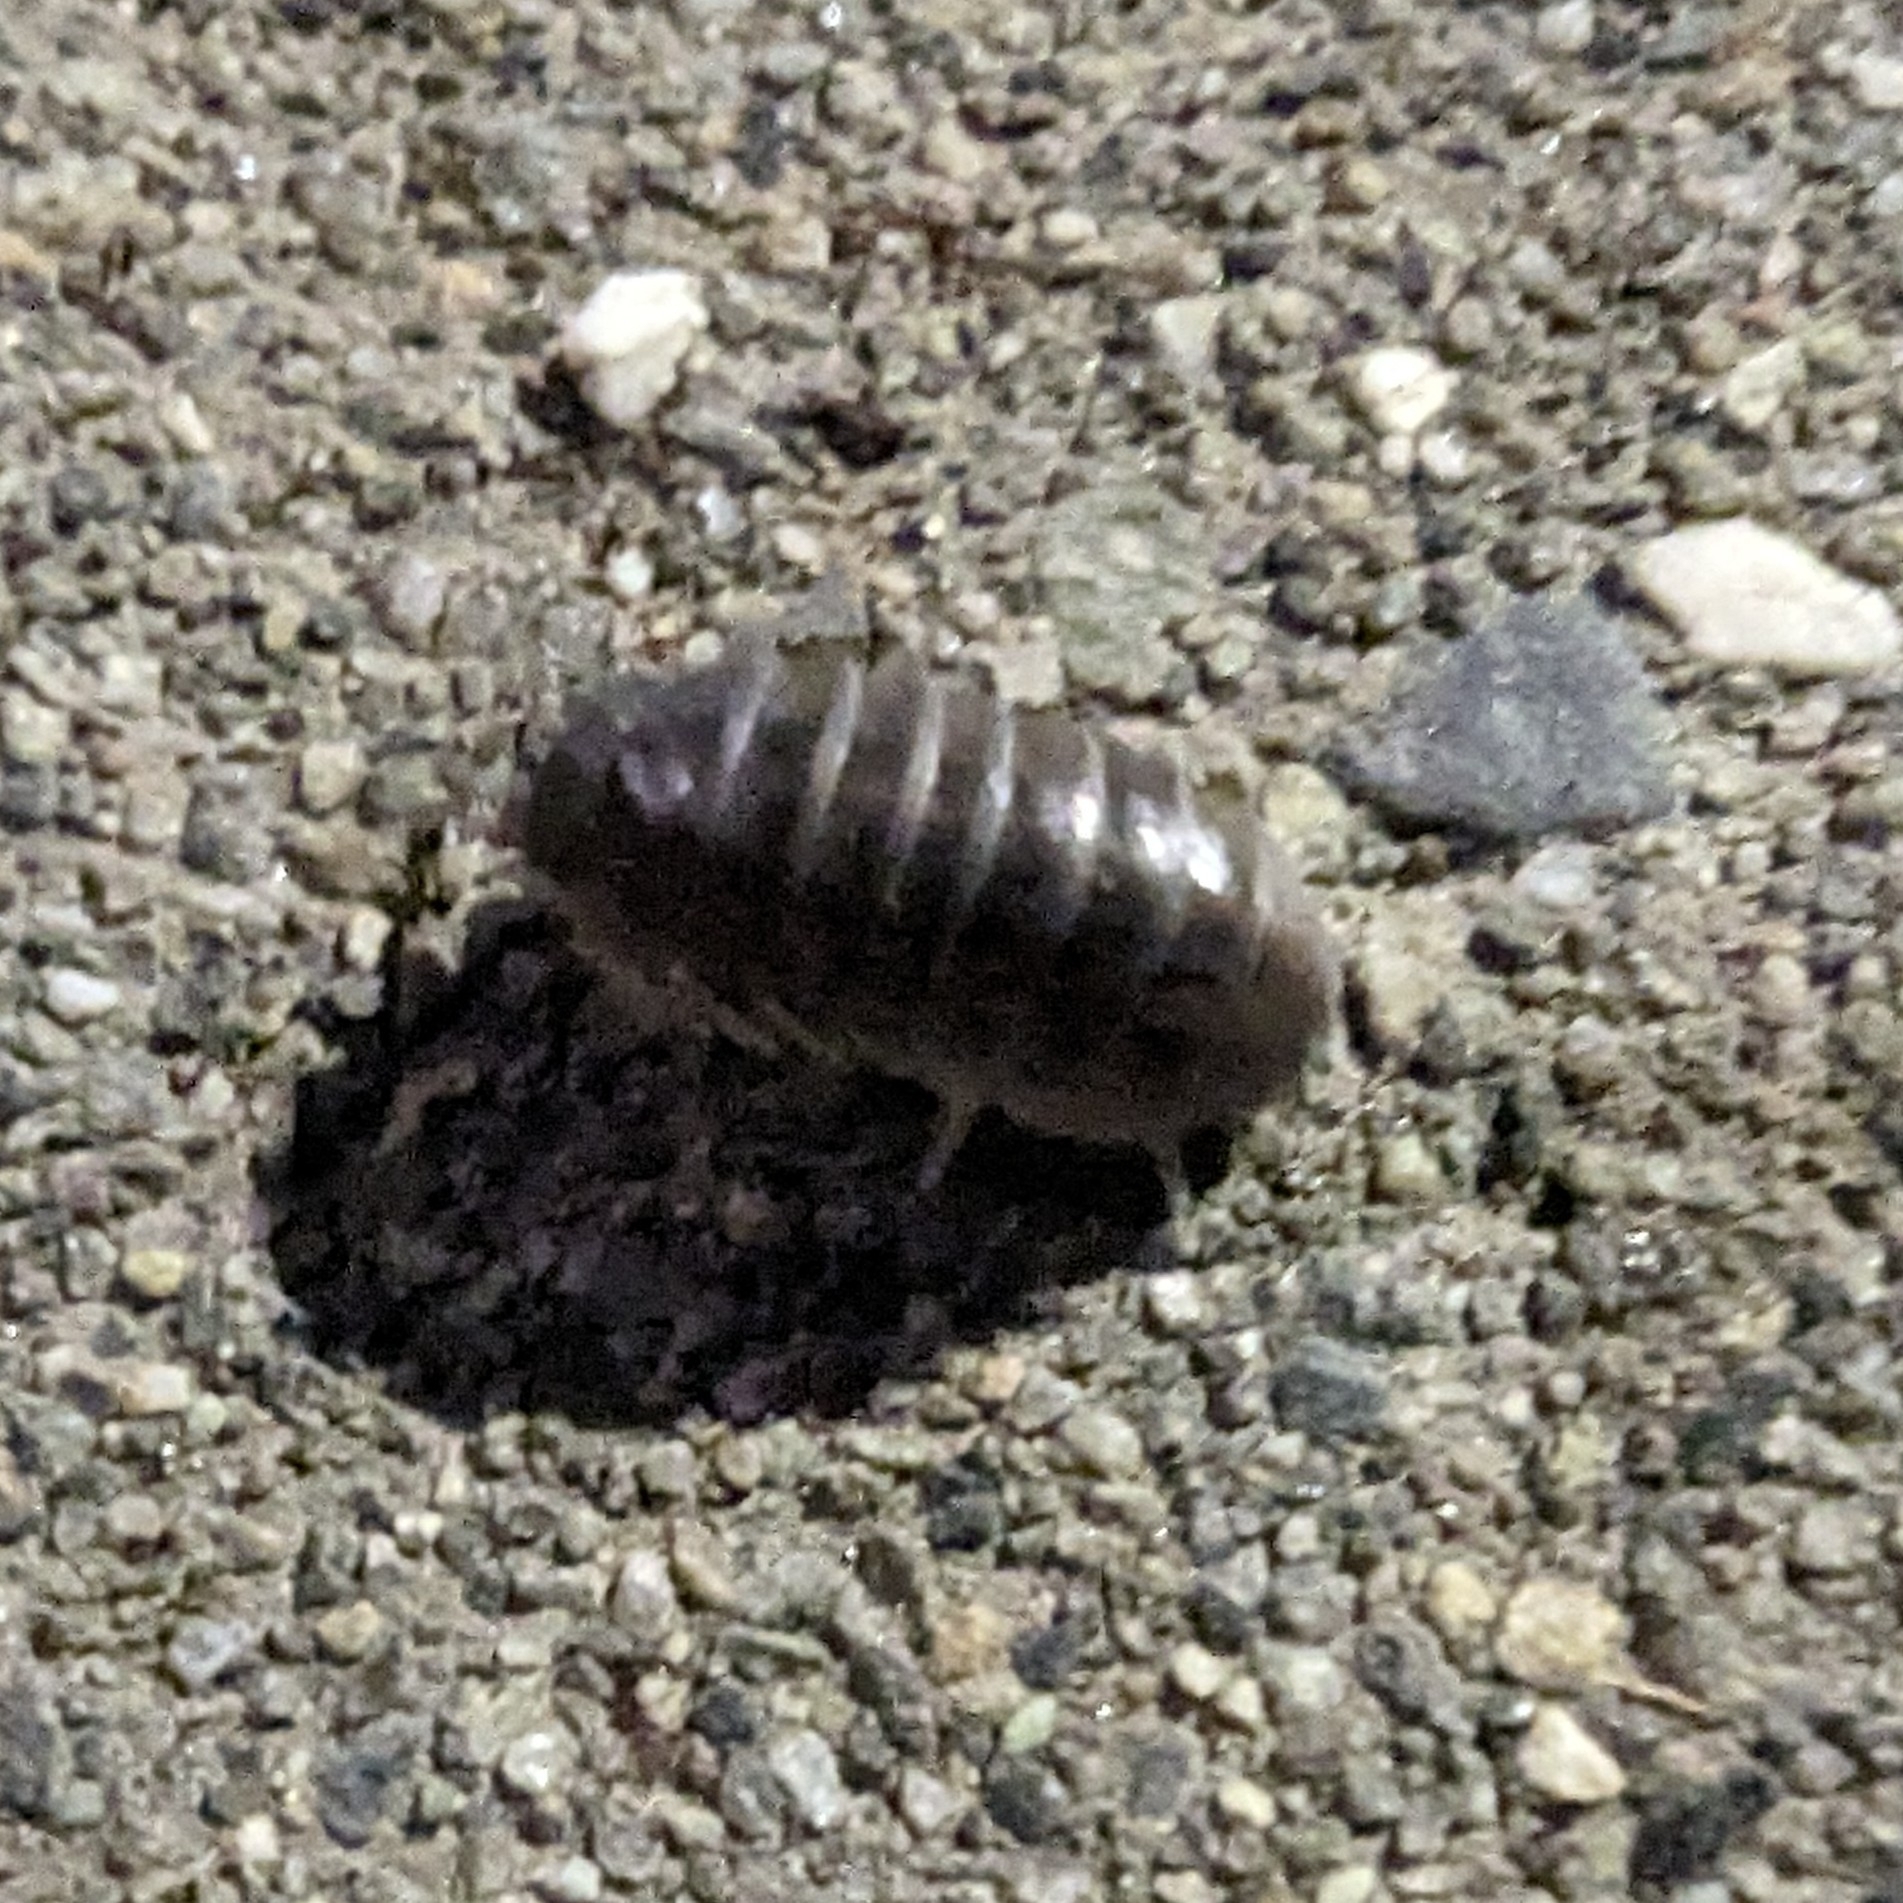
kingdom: Animalia
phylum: Arthropoda
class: Malacostraca
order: Isopoda
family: Armadillidiidae
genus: Armadillidium
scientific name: Armadillidium vulgare
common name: Common pill woodlouse
